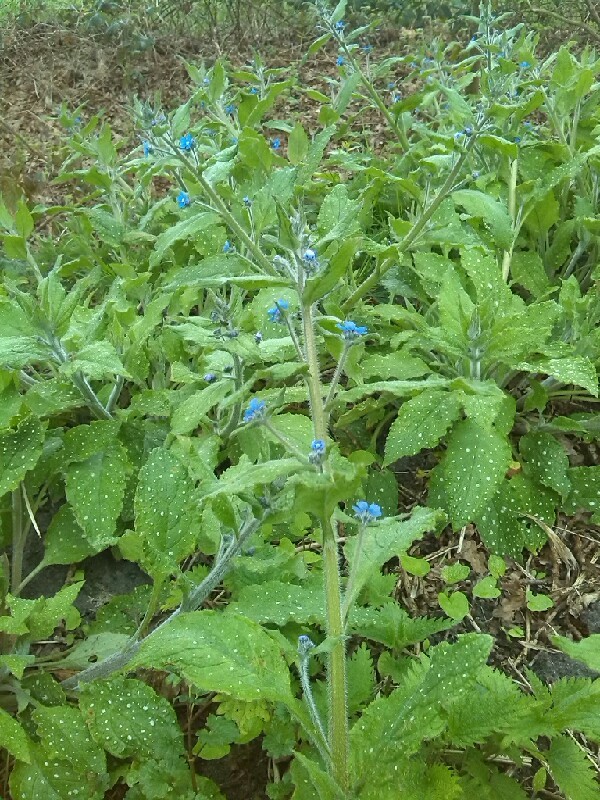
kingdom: Plantae
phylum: Tracheophyta
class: Magnoliopsida
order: Boraginales
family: Boraginaceae
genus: Pentaglottis
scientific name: Pentaglottis sempervirens
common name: Green alkanet
